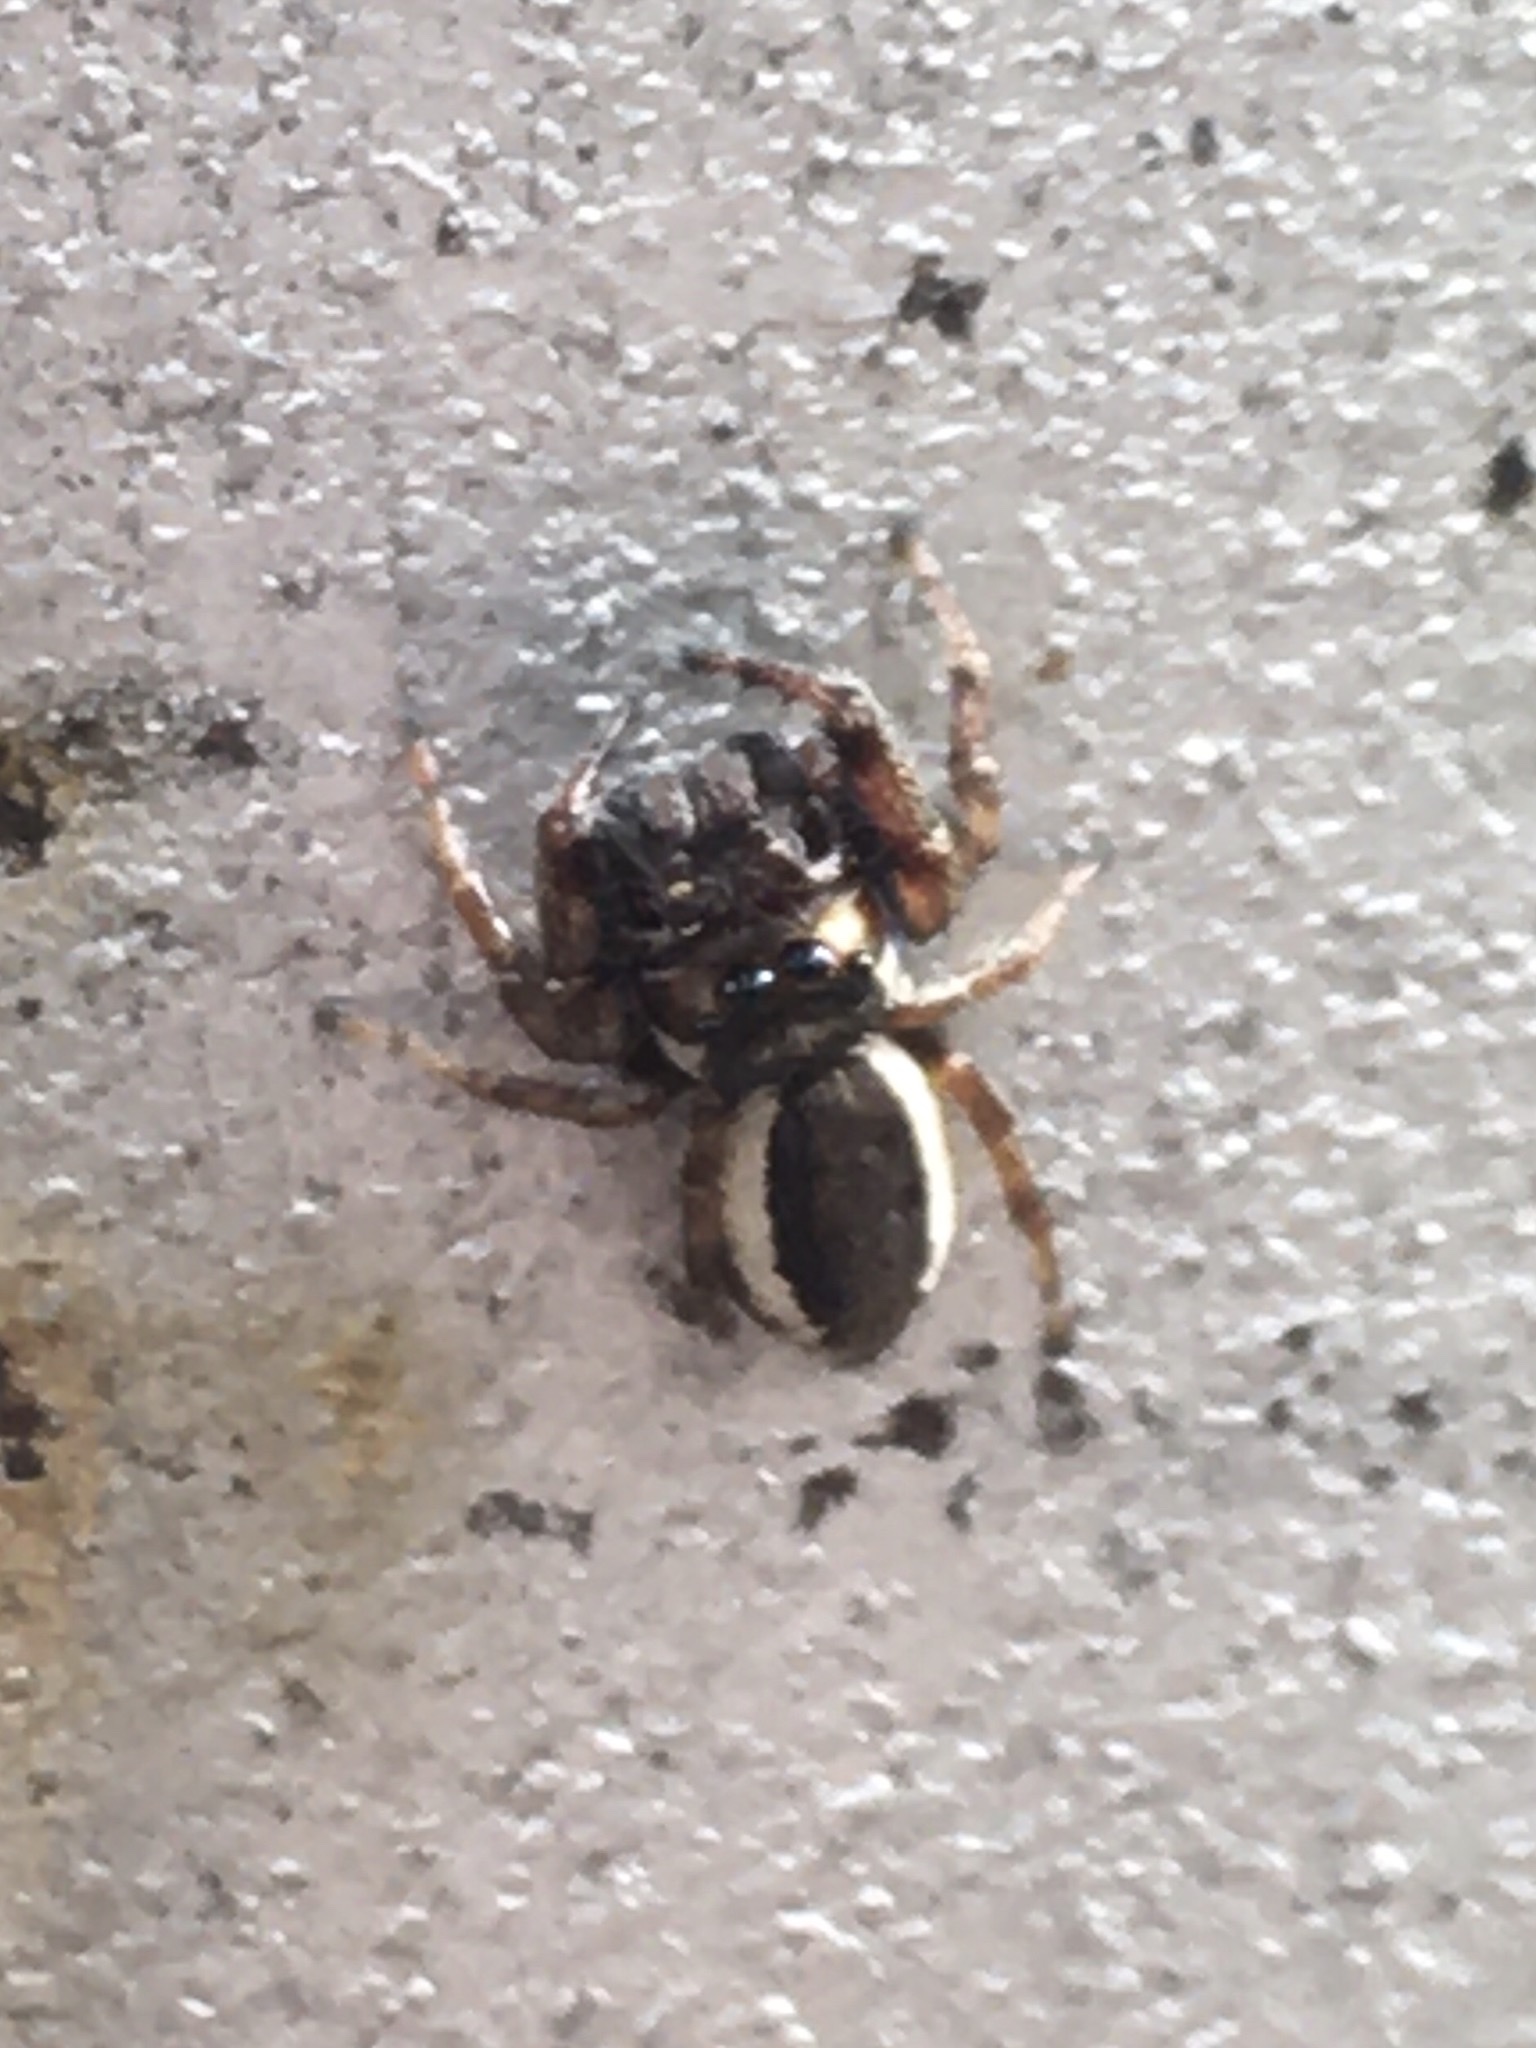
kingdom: Animalia
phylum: Arthropoda
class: Arachnida
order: Araneae
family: Salticidae
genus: Eris
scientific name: Eris militaris
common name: Bronze jumper
